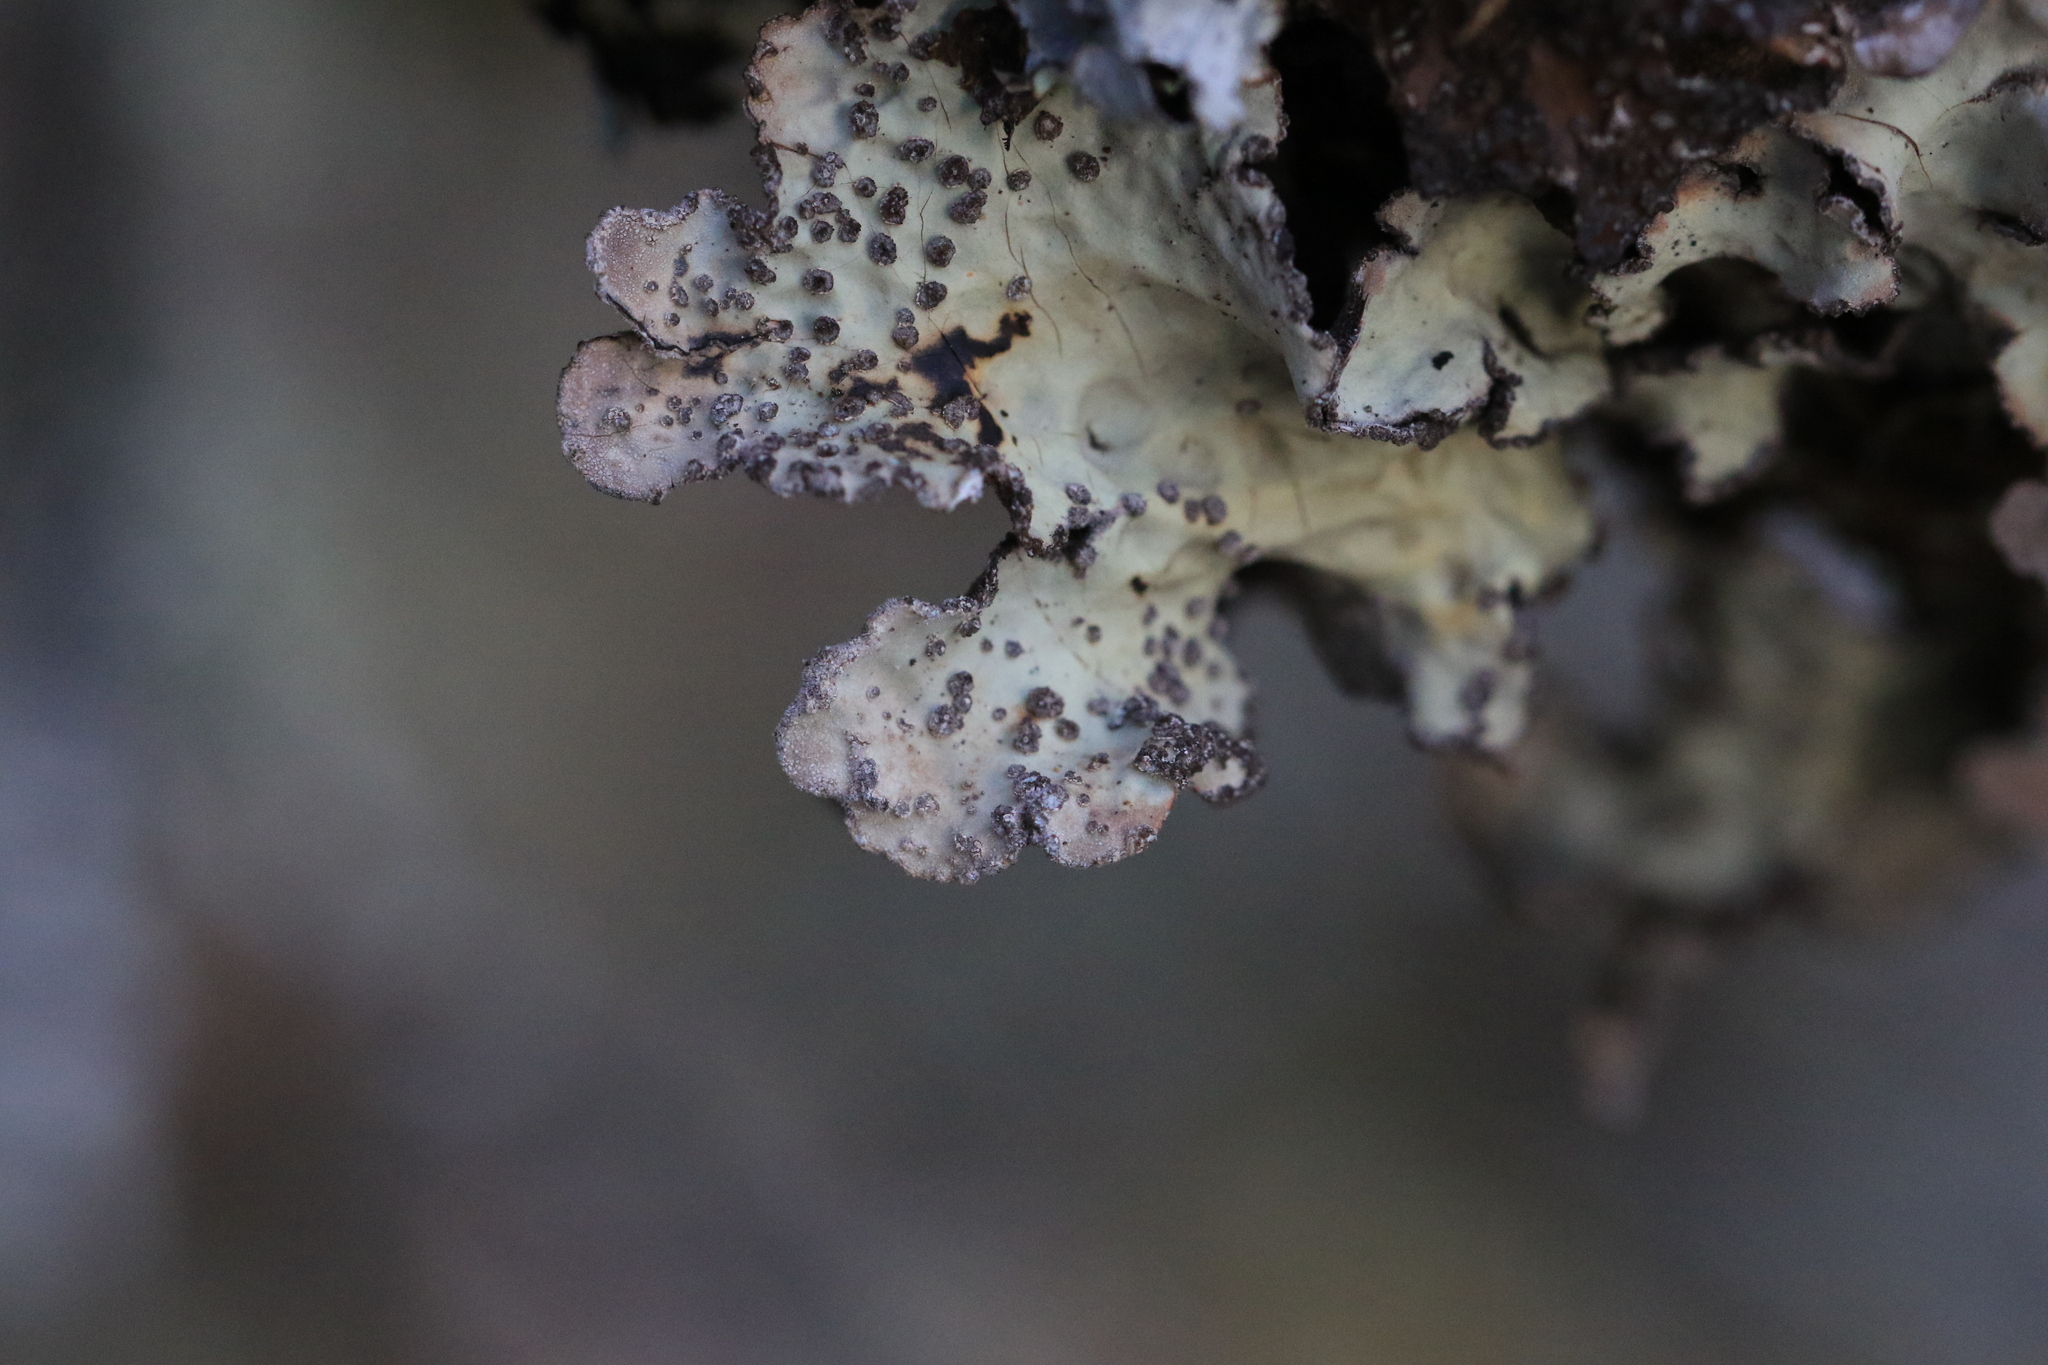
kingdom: Fungi
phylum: Ascomycota
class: Lecanoromycetes
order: Peltigerales
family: Lobariaceae
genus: Lobarina
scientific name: Lobarina scrobiculata
